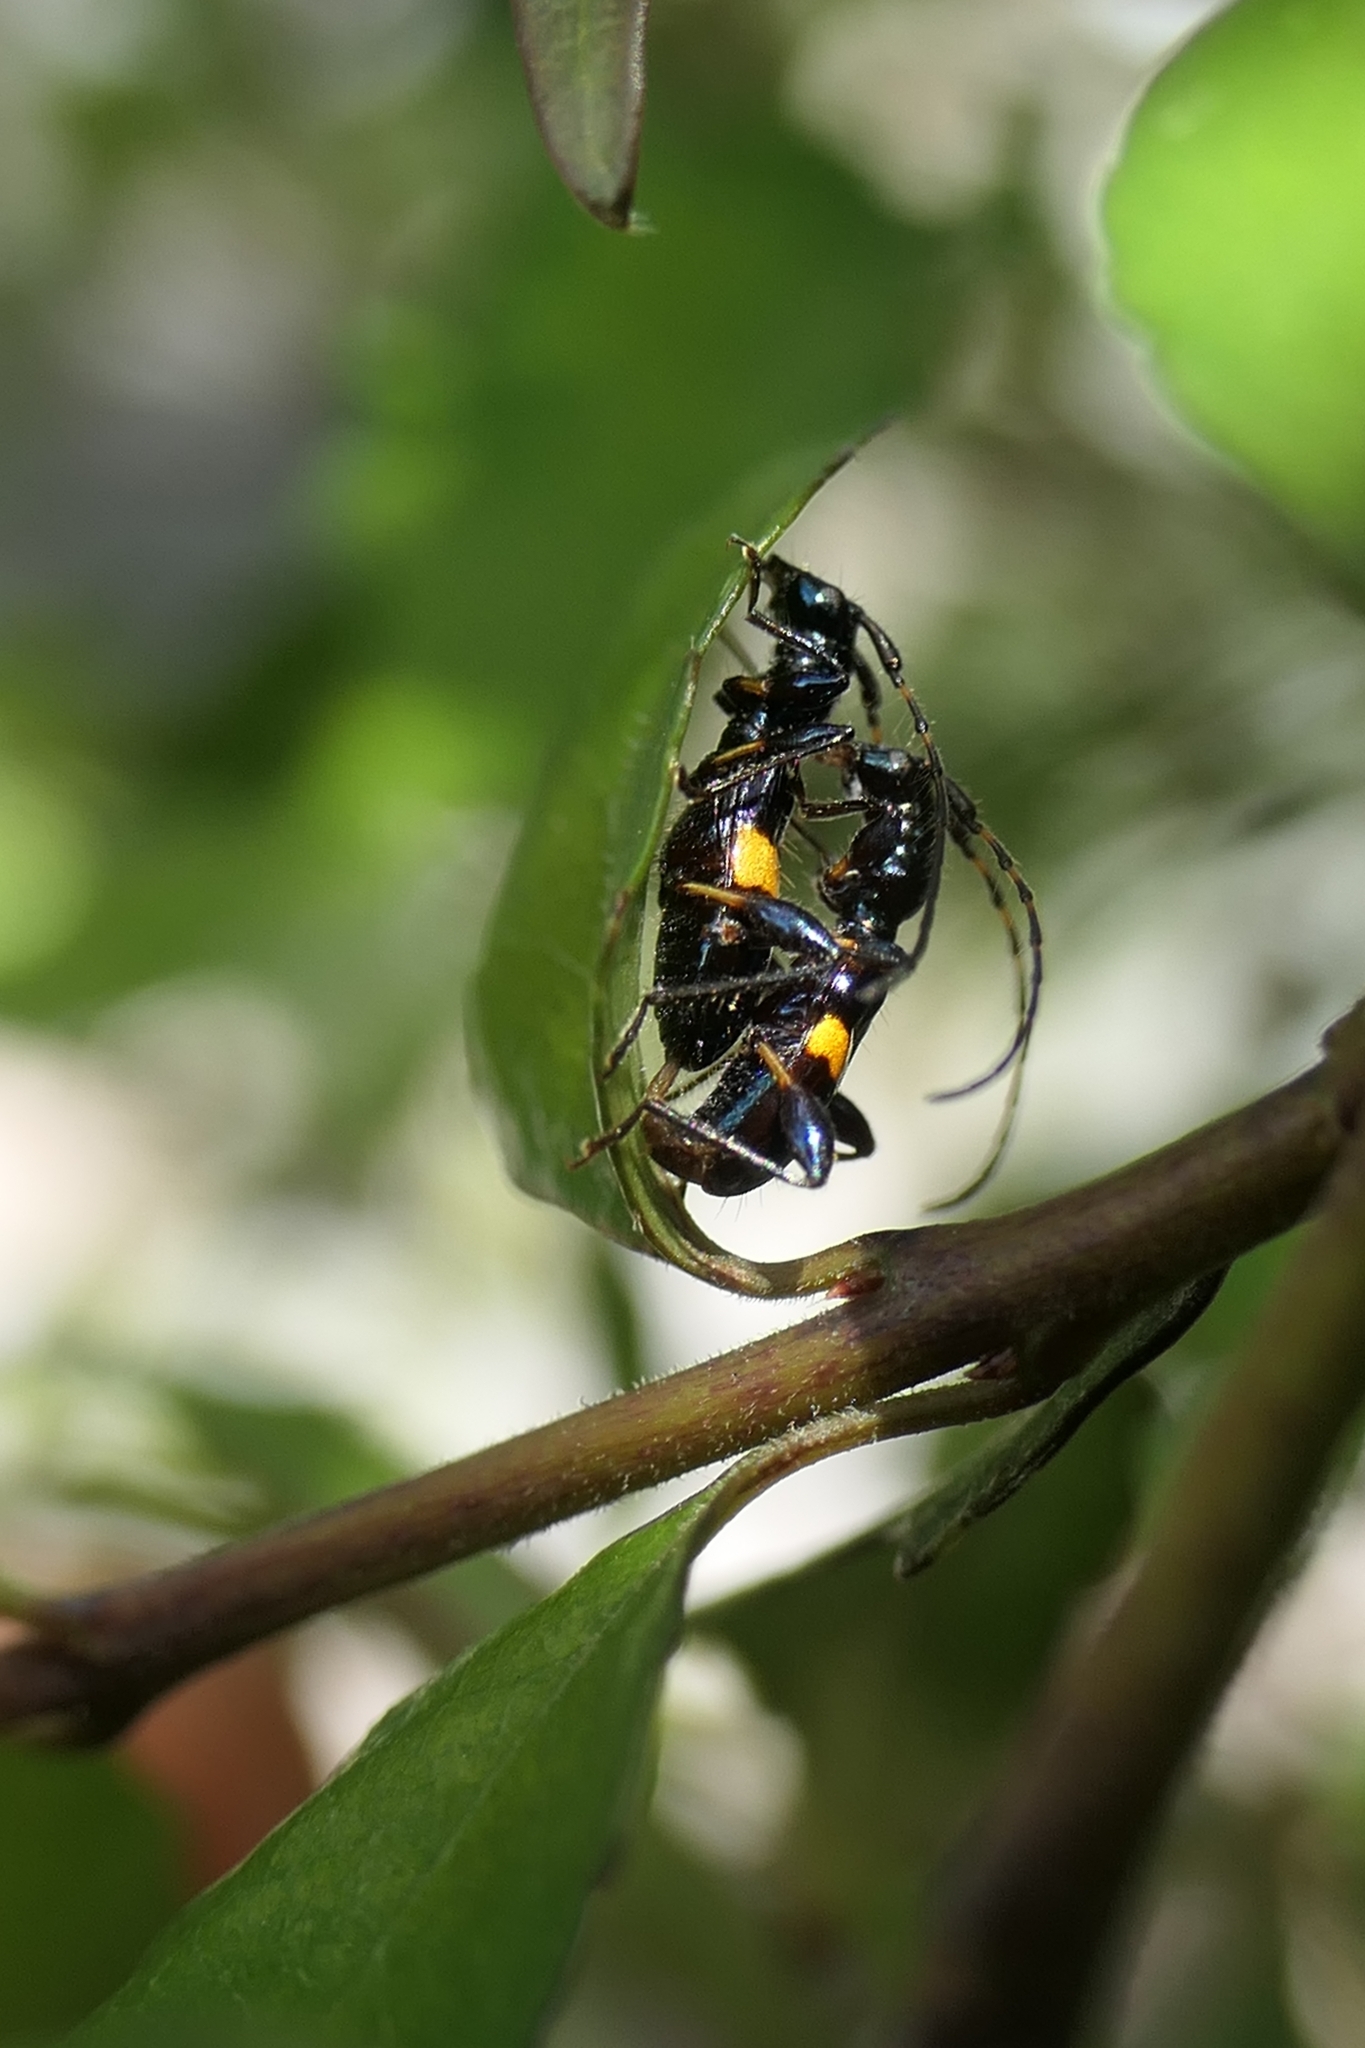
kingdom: Animalia
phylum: Arthropoda
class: Insecta
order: Coleoptera
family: Cerambycidae
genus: Zorion
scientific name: Zorion guttigerum
